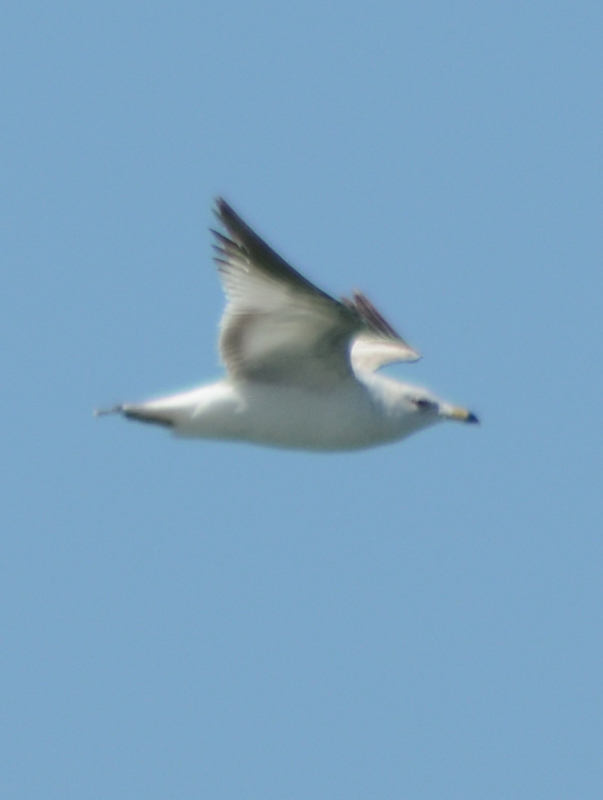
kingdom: Animalia
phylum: Chordata
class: Aves
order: Charadriiformes
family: Laridae
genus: Larus
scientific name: Larus delawarensis
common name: Ring-billed gull
